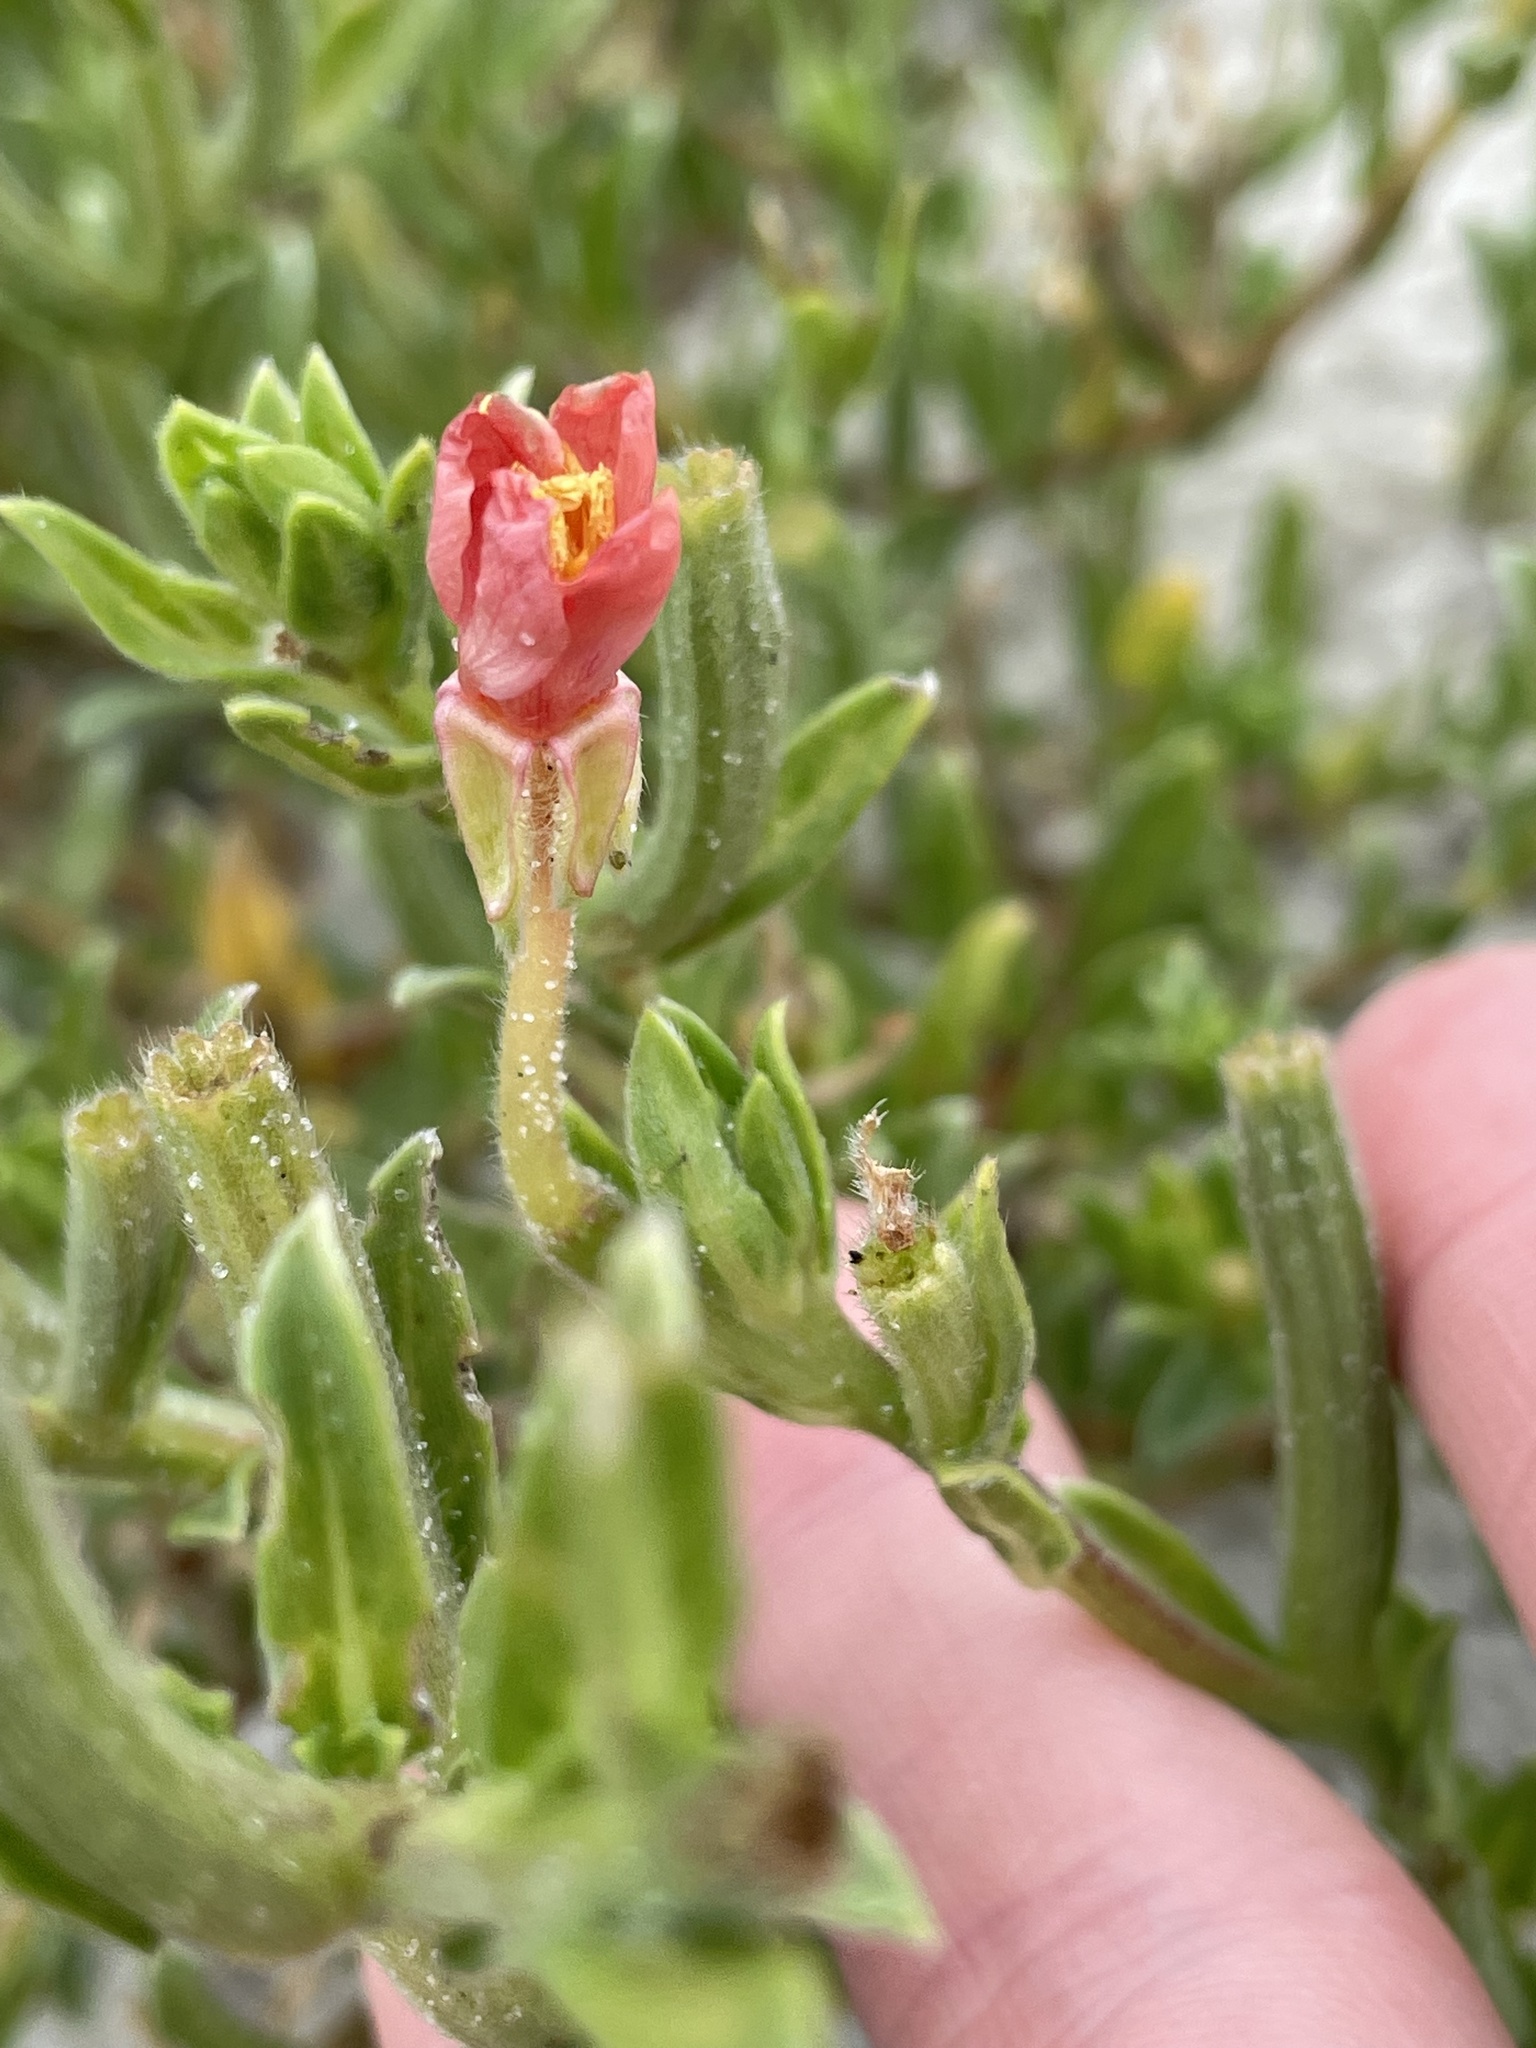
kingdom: Plantae
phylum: Tracheophyta
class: Magnoliopsida
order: Myrtales
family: Onagraceae
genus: Oenothera
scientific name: Oenothera humifusa
